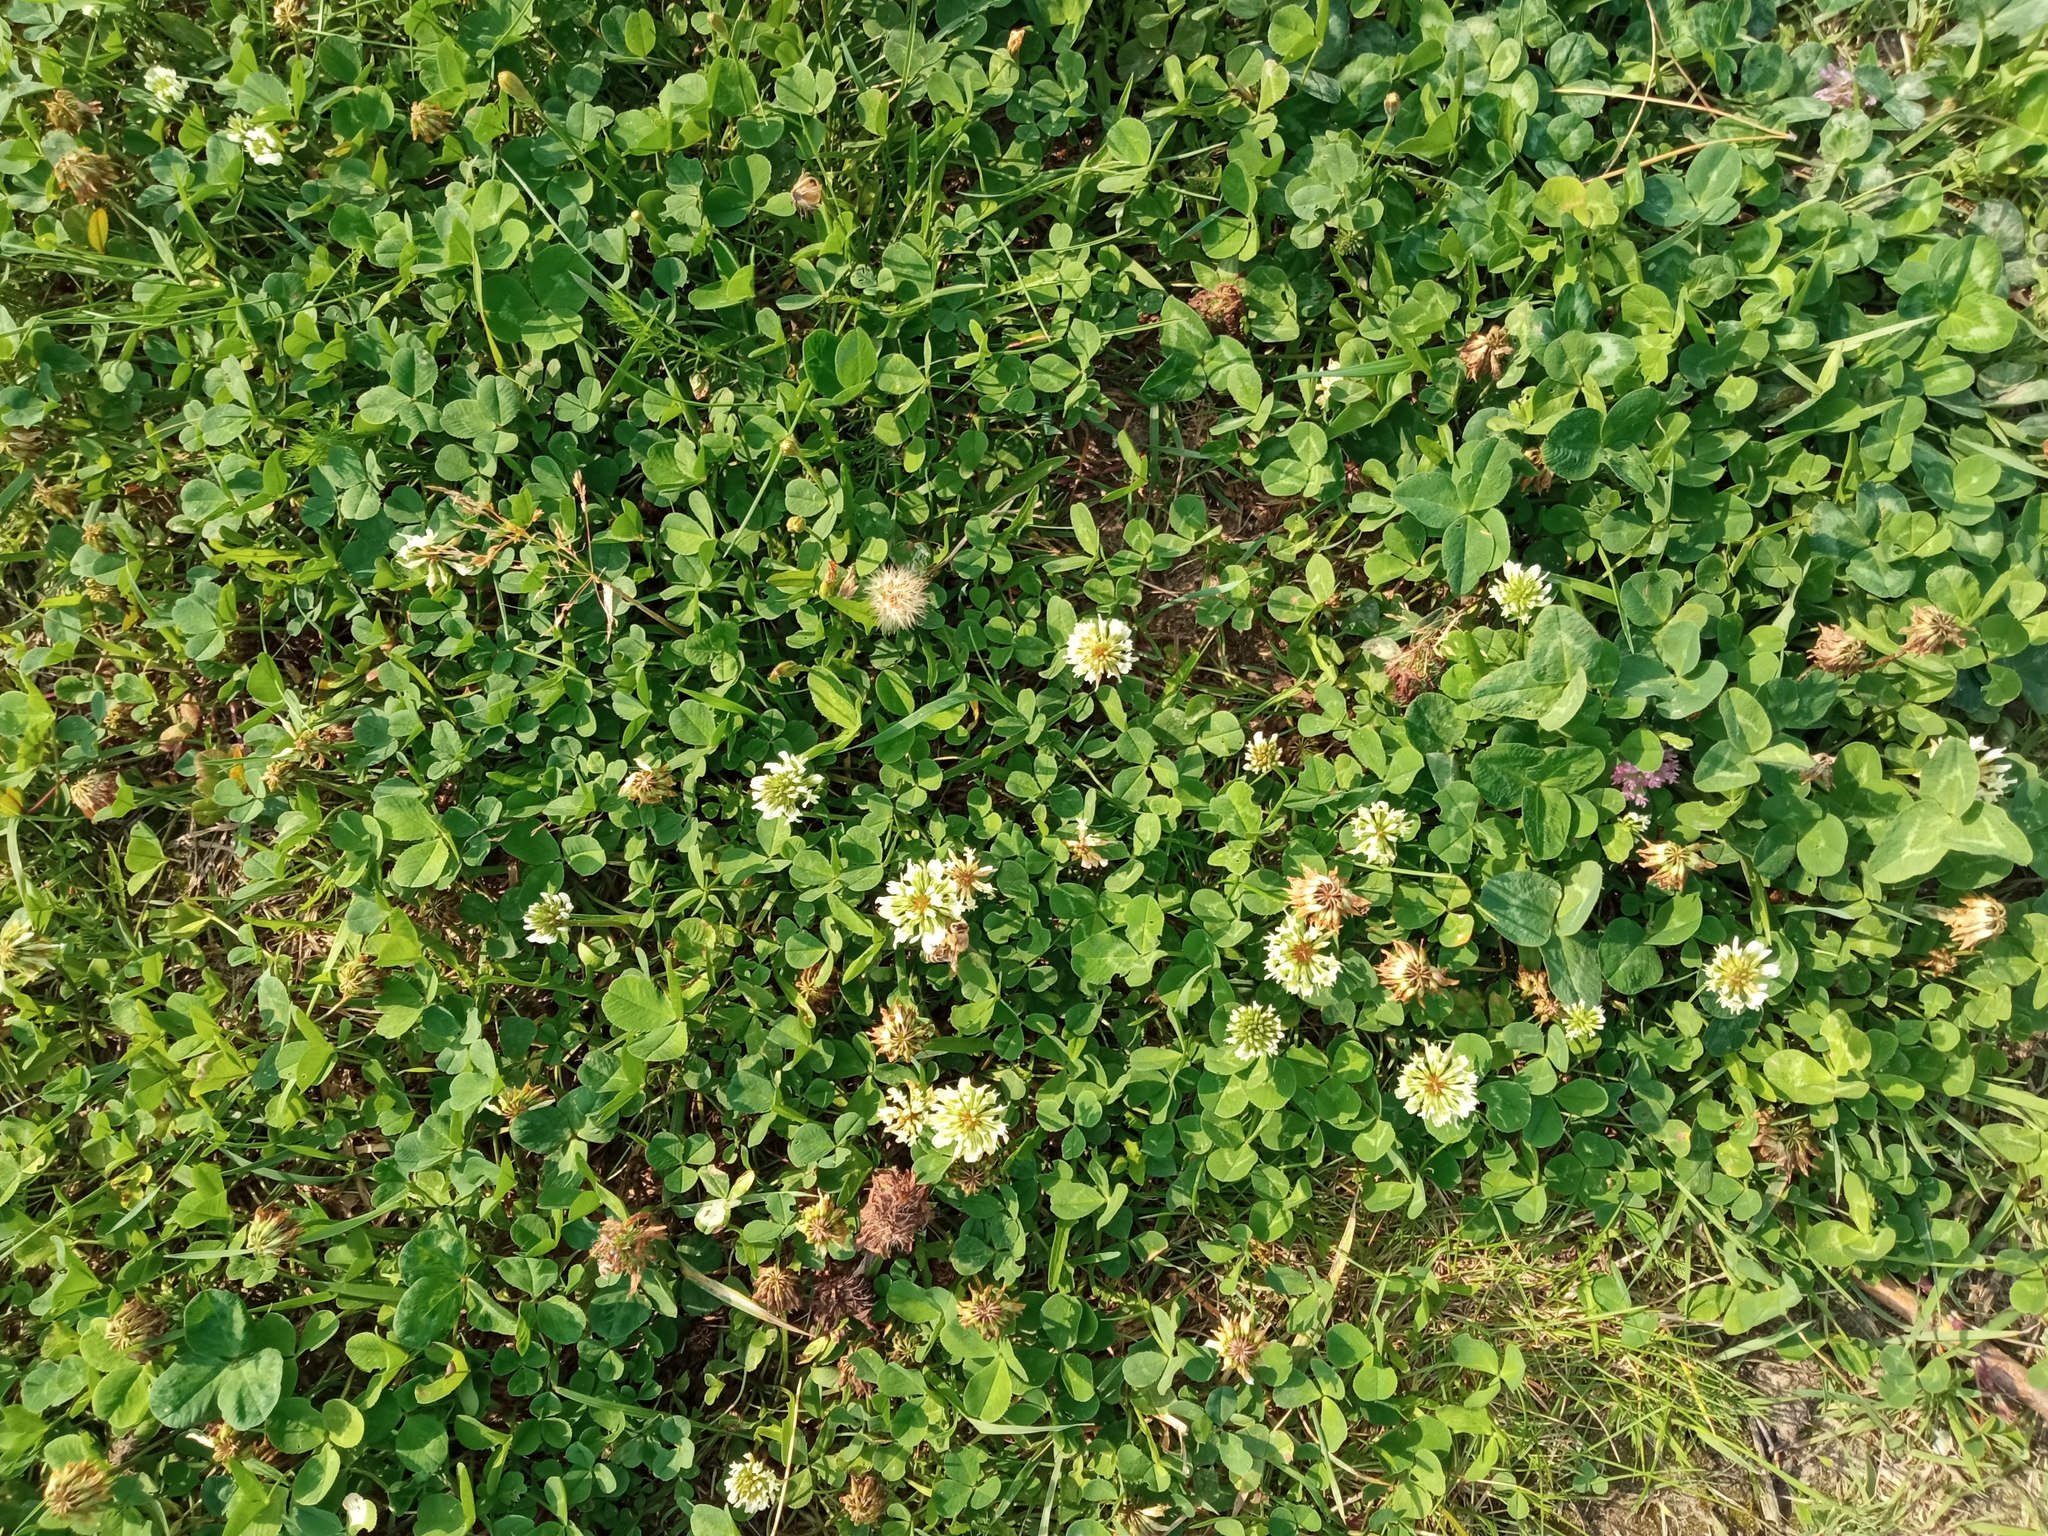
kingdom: Plantae
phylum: Tracheophyta
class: Magnoliopsida
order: Fabales
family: Fabaceae
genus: Trifolium
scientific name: Trifolium repens
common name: White clover
